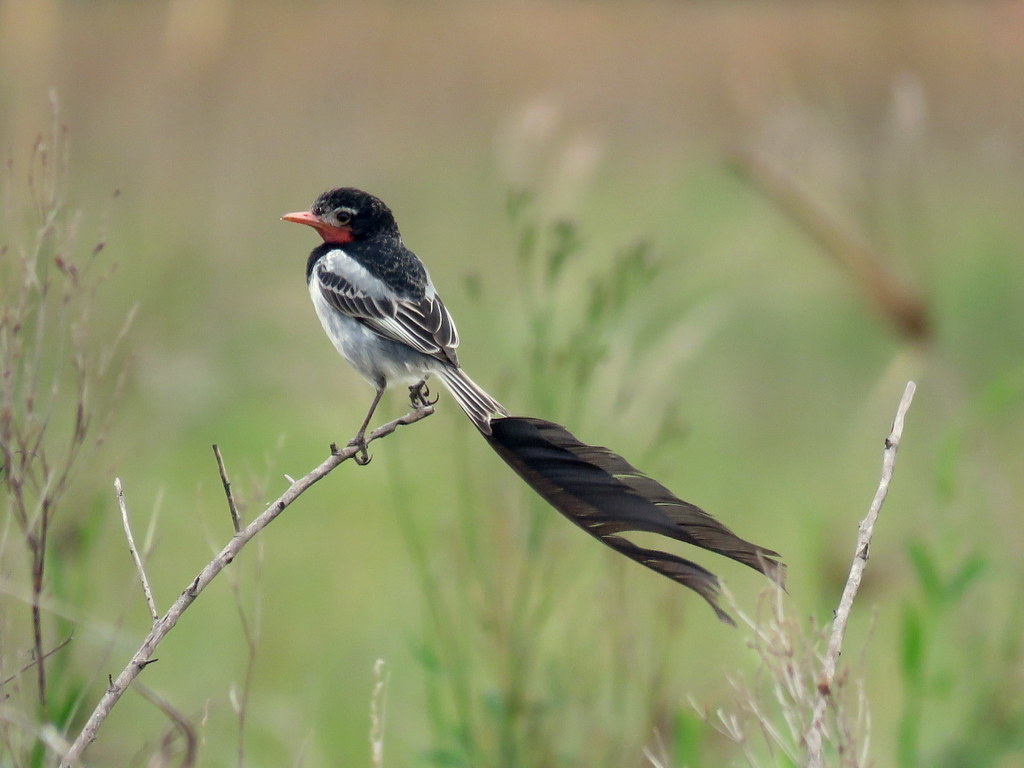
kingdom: Animalia
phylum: Chordata
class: Aves
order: Passeriformes
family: Tyrannidae
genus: Alectrurus
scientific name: Alectrurus risora
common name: Strange-tailed tyrant
